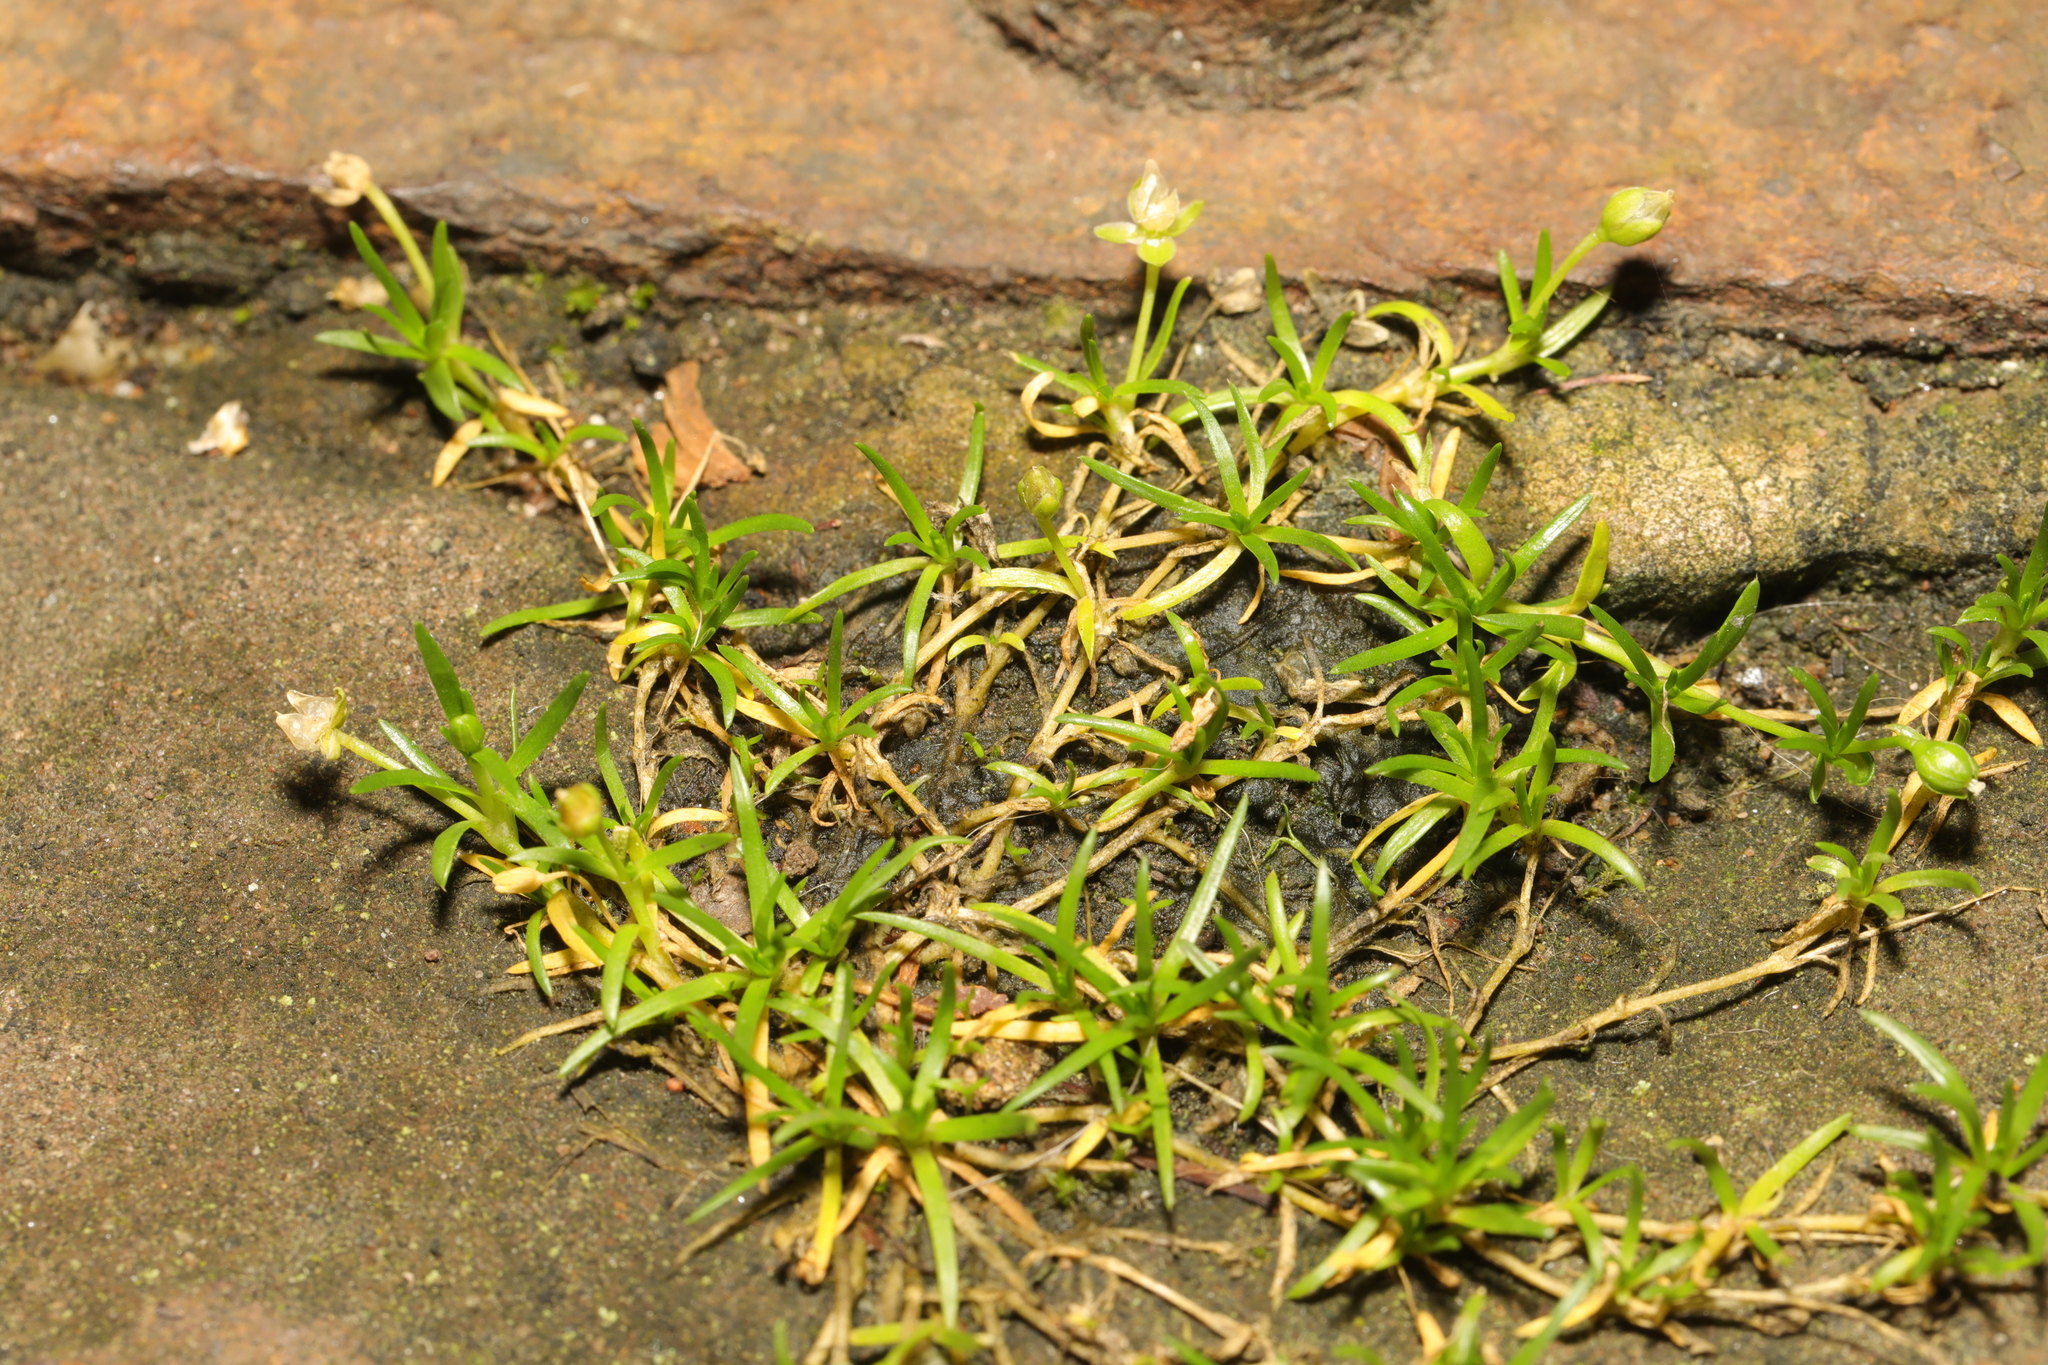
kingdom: Plantae
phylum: Tracheophyta
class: Magnoliopsida
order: Caryophyllales
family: Caryophyllaceae
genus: Sagina
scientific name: Sagina procumbens
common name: Procumbent pearlwort
